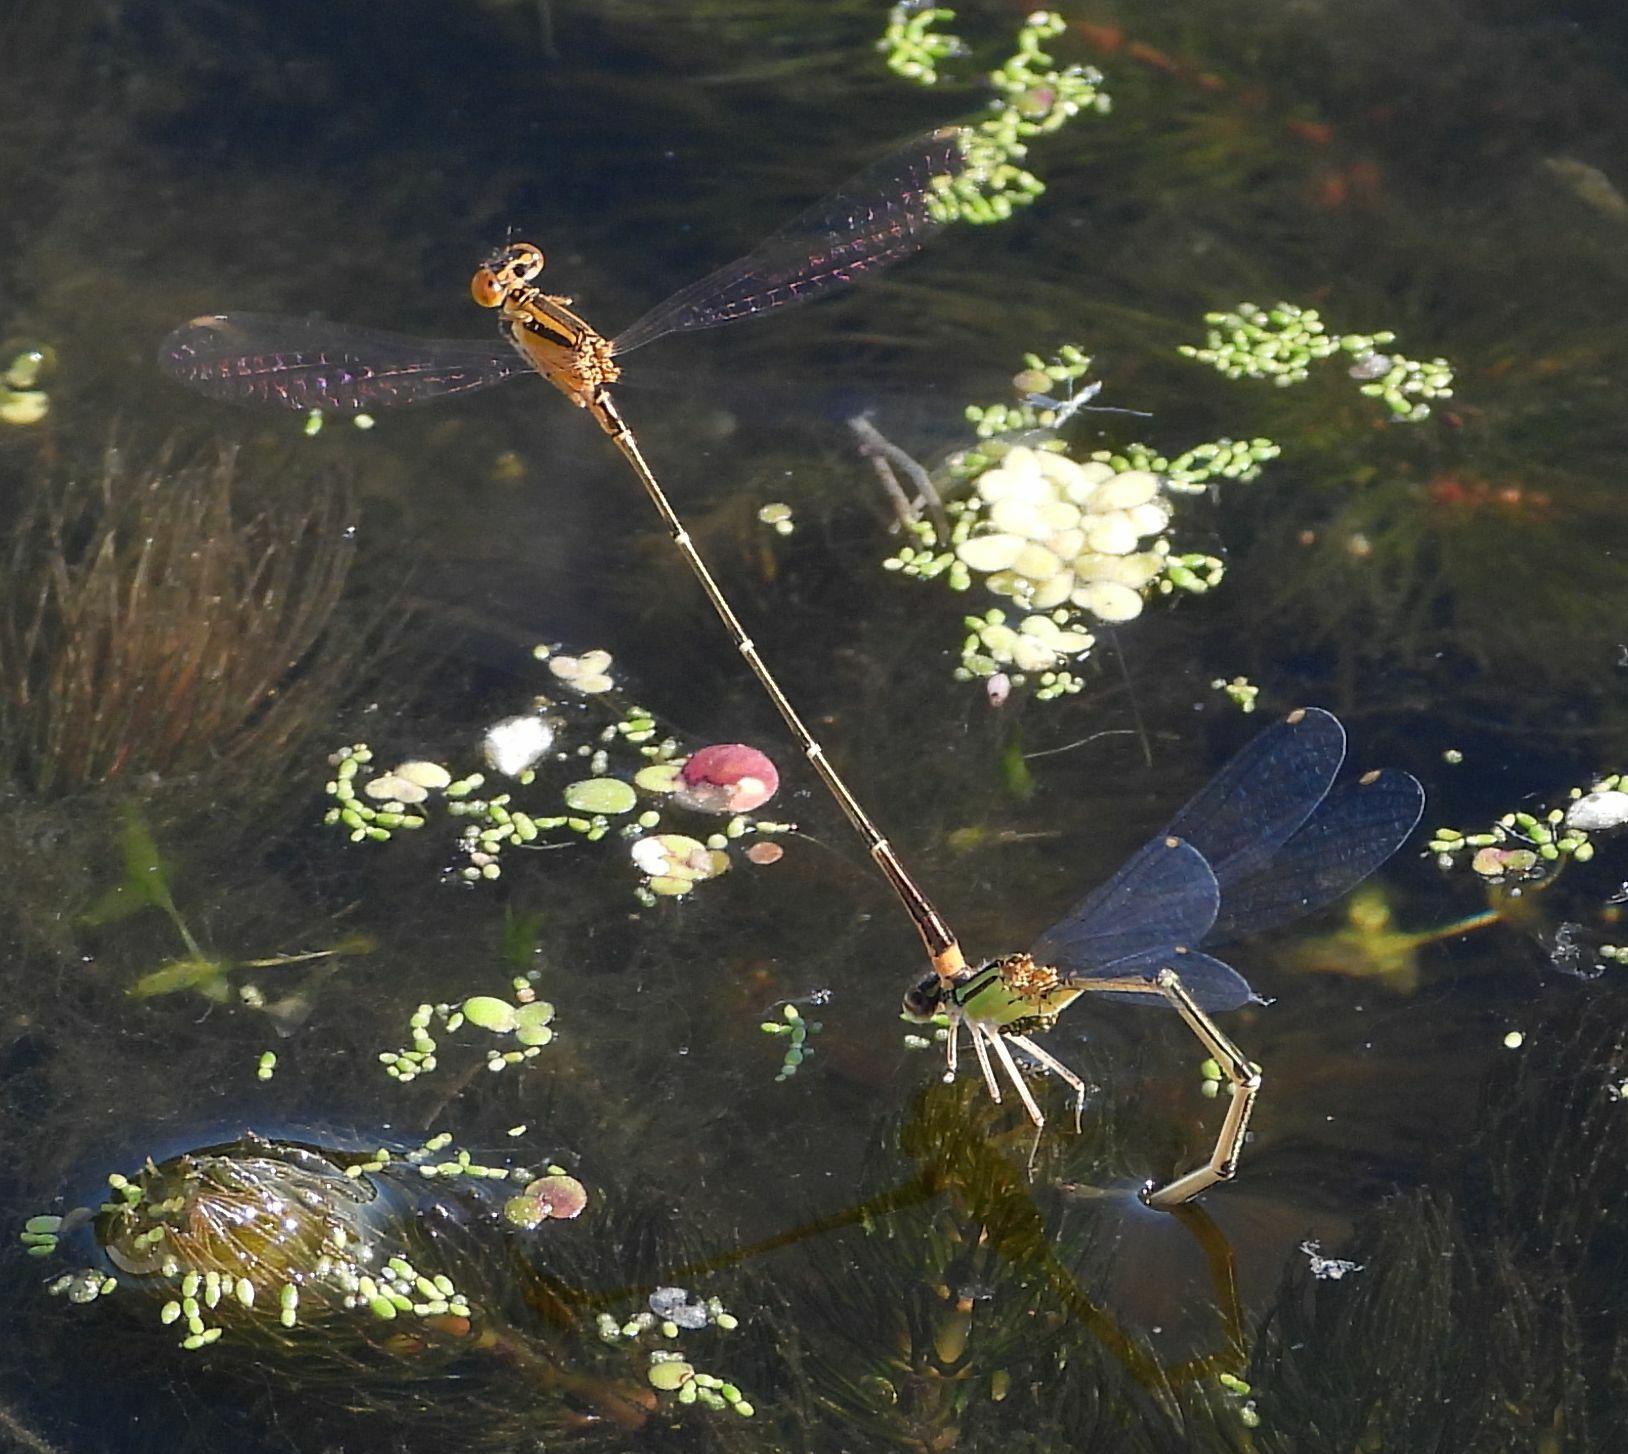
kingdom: Animalia
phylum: Arthropoda
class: Insecta
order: Odonata
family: Coenagrionidae
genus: Enallagma
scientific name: Enallagma signatum
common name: Orange bluet
